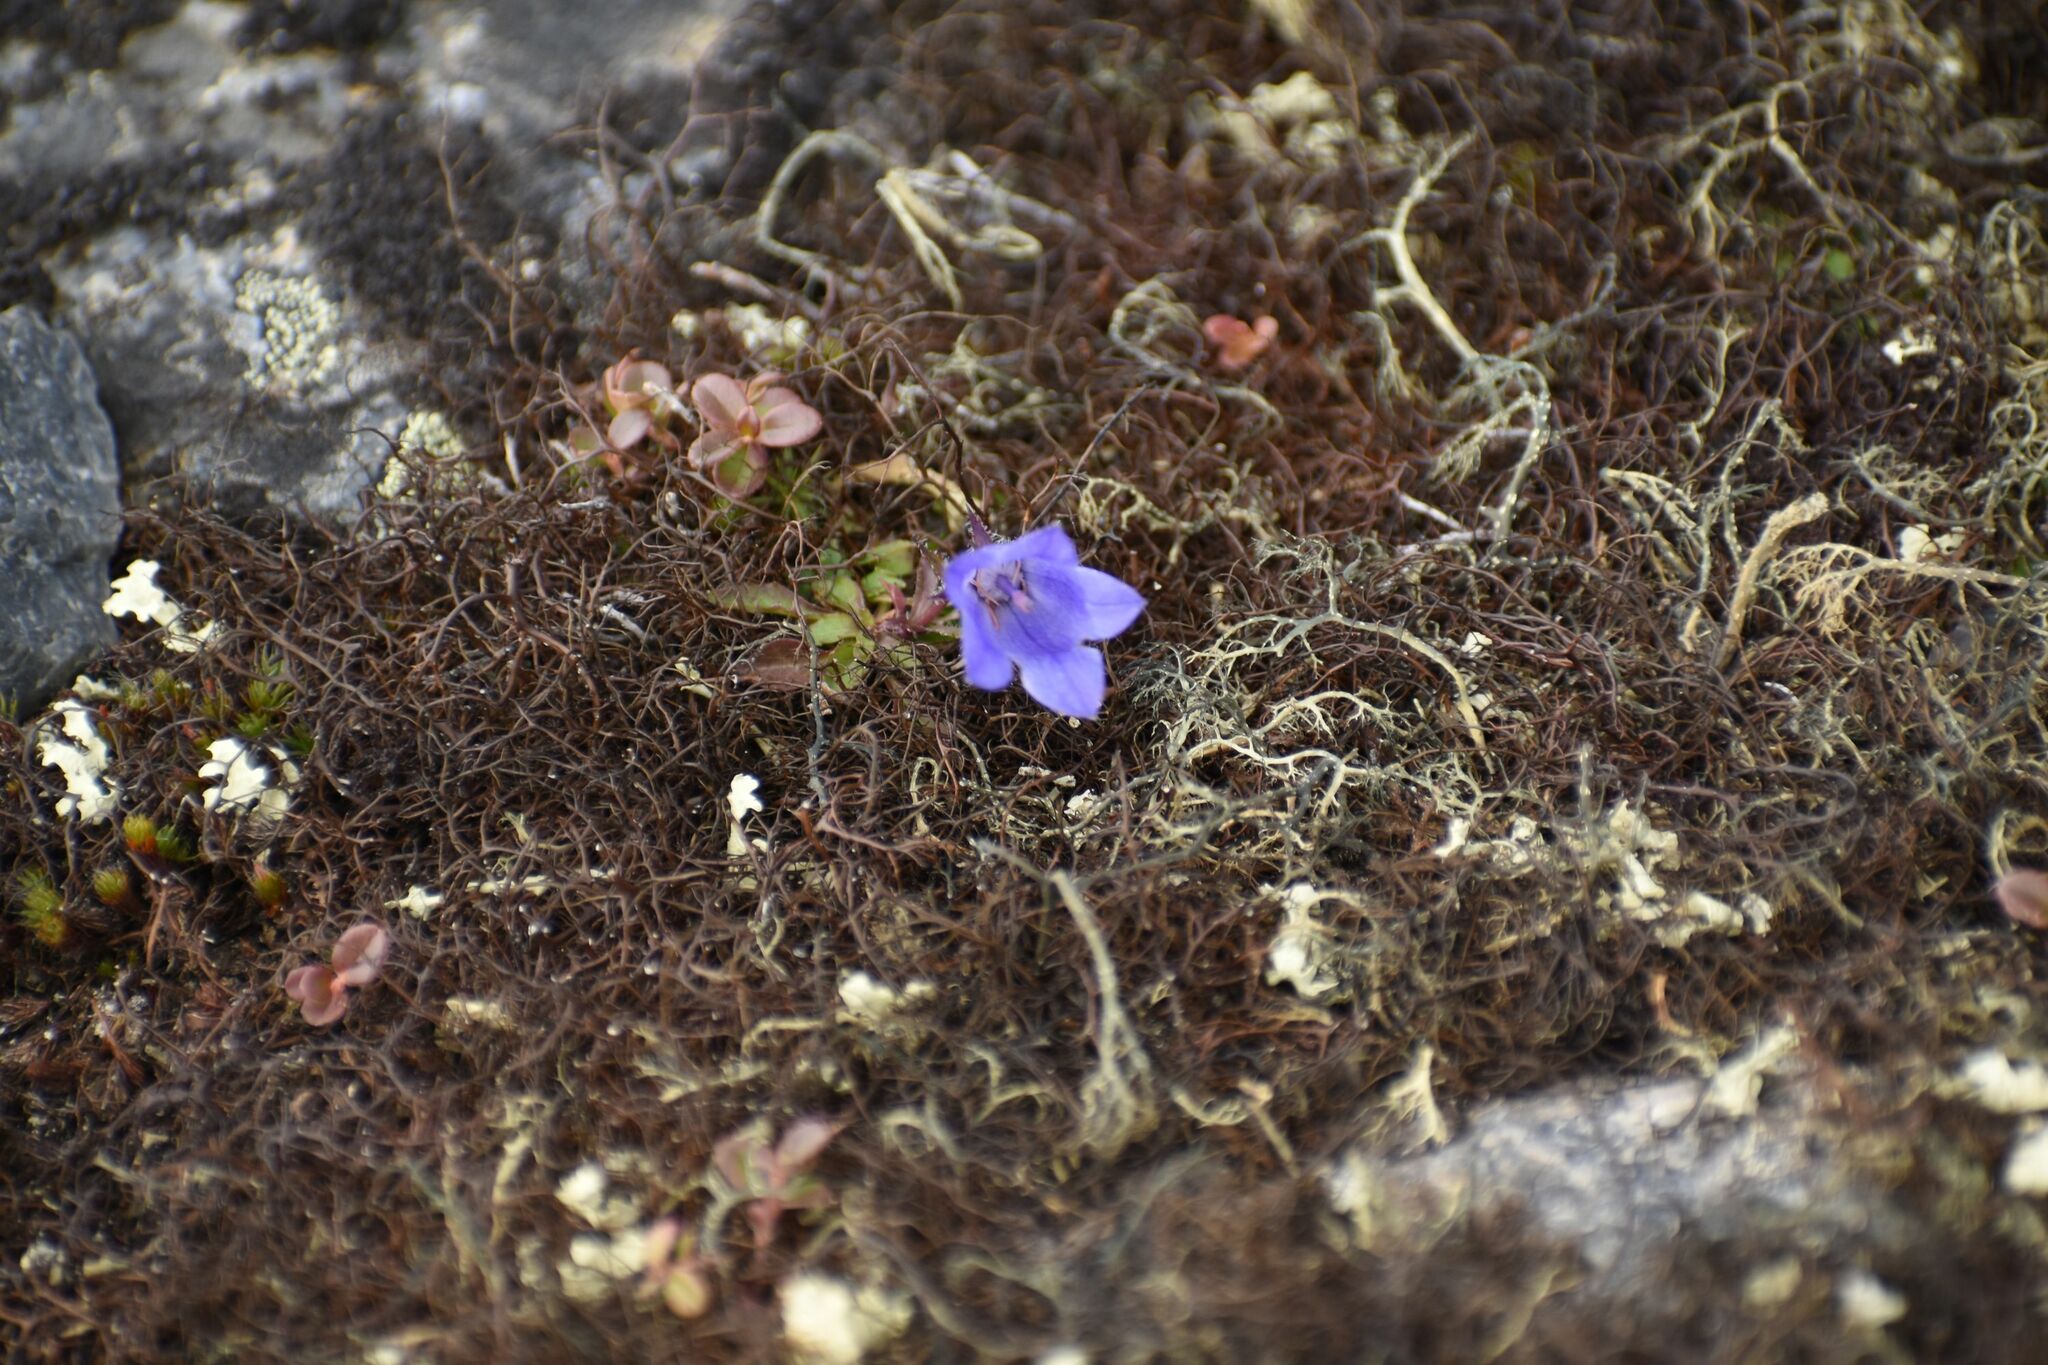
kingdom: Plantae
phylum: Tracheophyta
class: Magnoliopsida
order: Asterales
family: Campanulaceae
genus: Campanula
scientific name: Campanula lasiocarpa
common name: Mountain harebell
